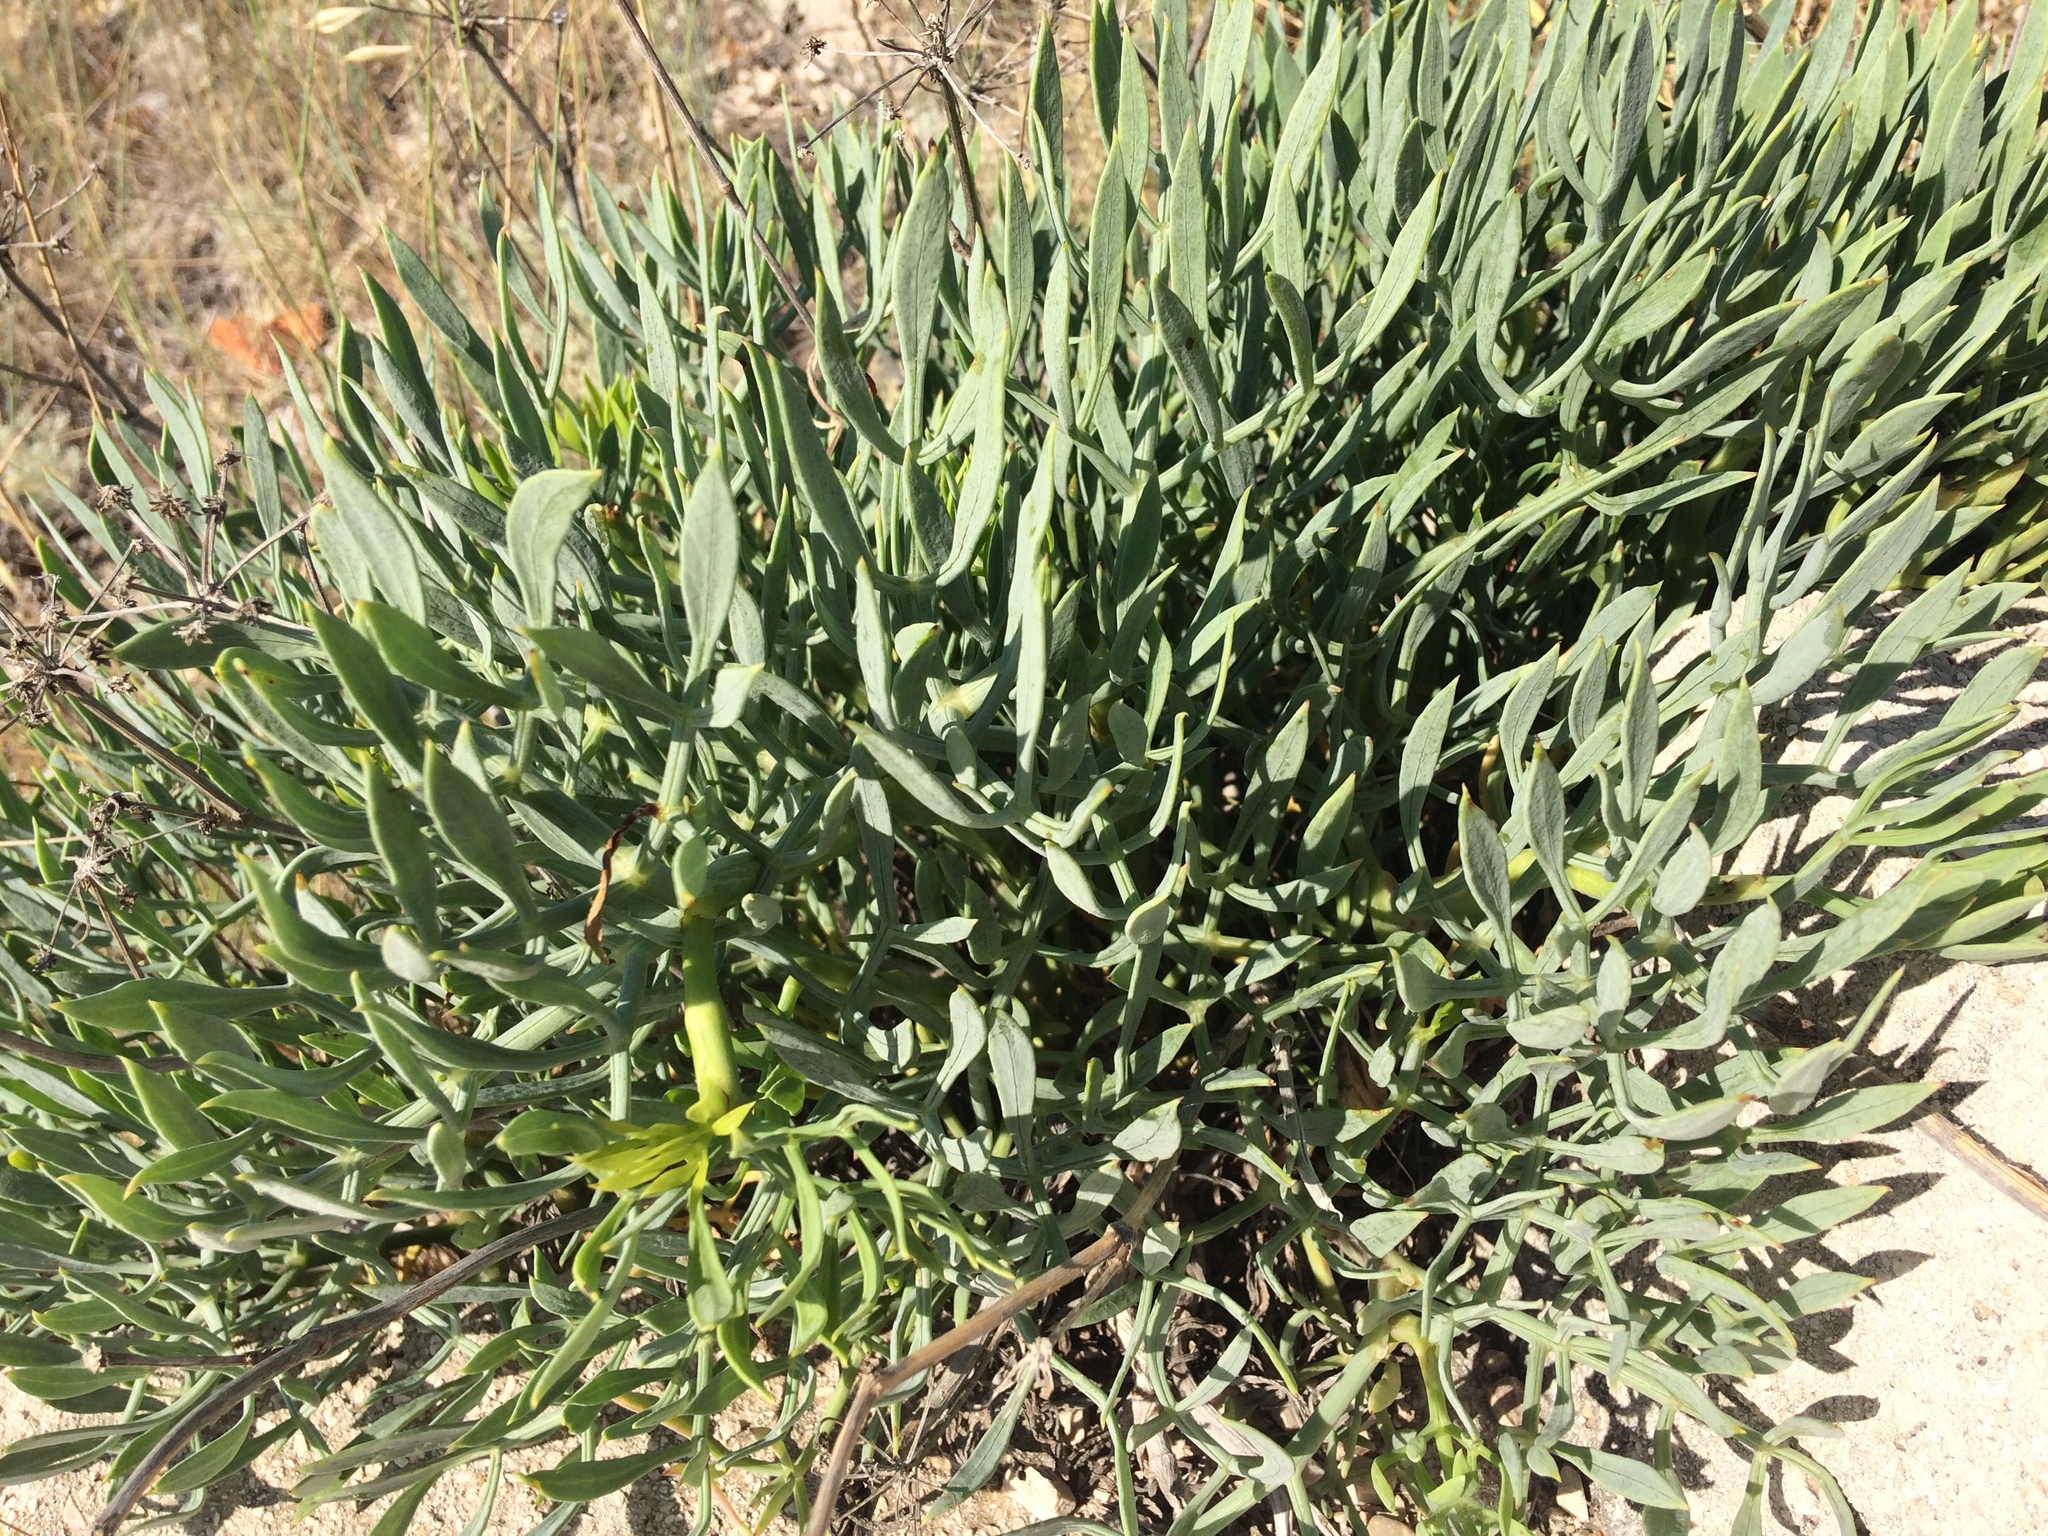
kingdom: Plantae
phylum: Tracheophyta
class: Magnoliopsida
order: Apiales
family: Apiaceae
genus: Crithmum
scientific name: Crithmum maritimum
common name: Rock samphire
